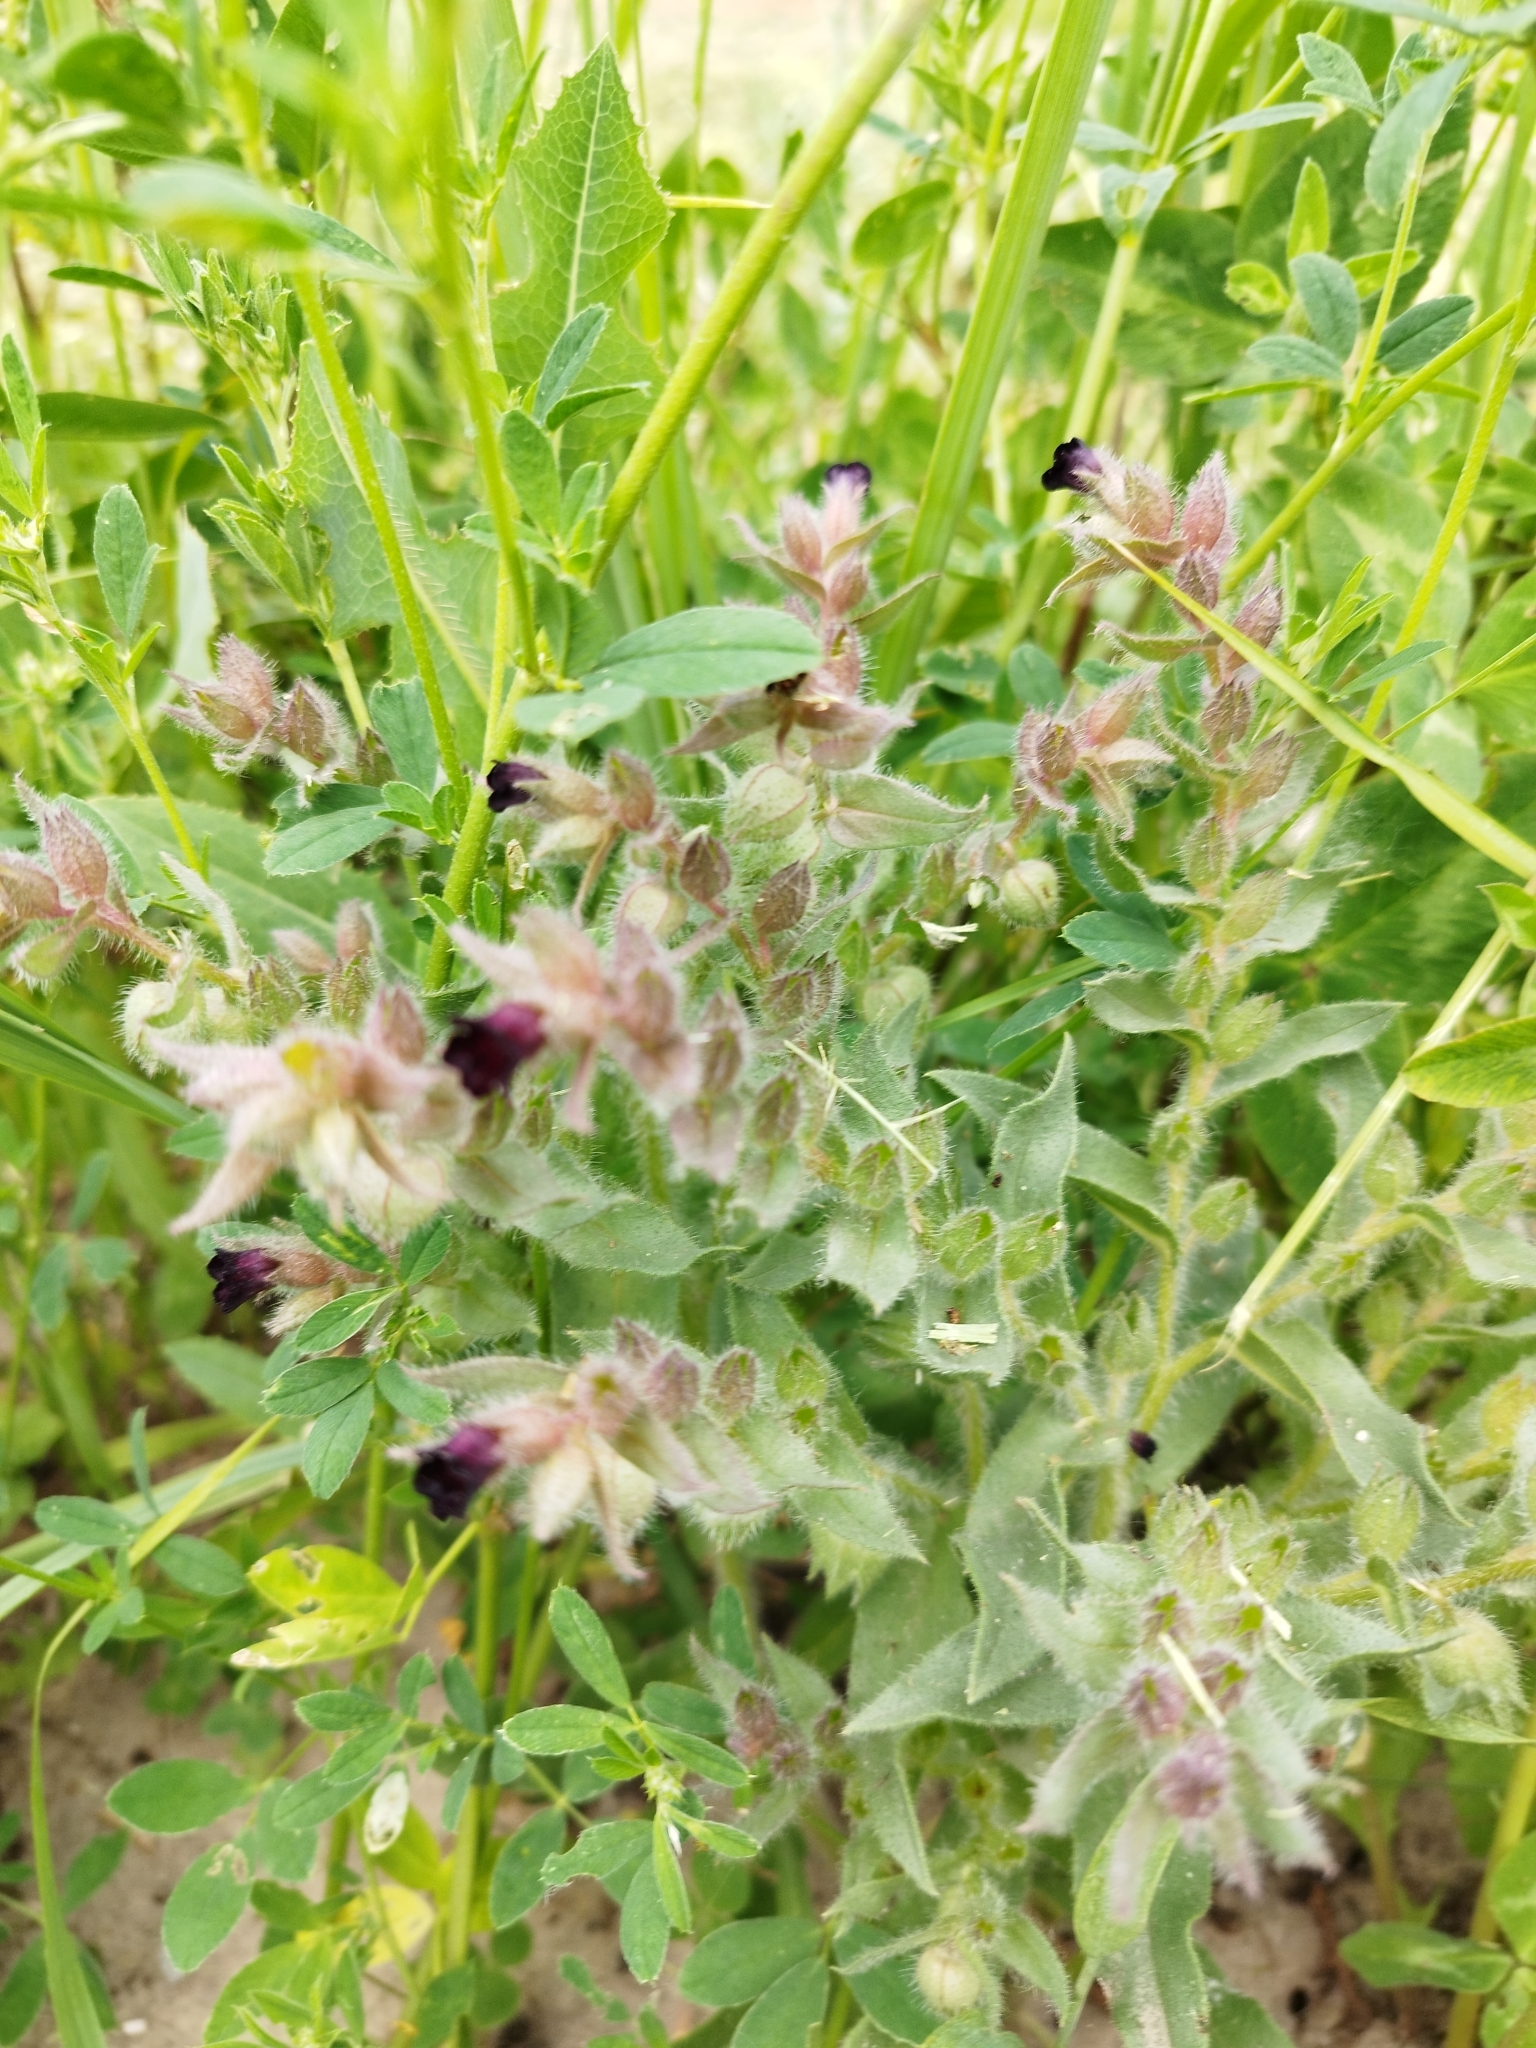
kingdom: Plantae
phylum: Tracheophyta
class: Magnoliopsida
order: Boraginales
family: Boraginaceae
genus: Nonea
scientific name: Nonea pulla
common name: Brown nonea
